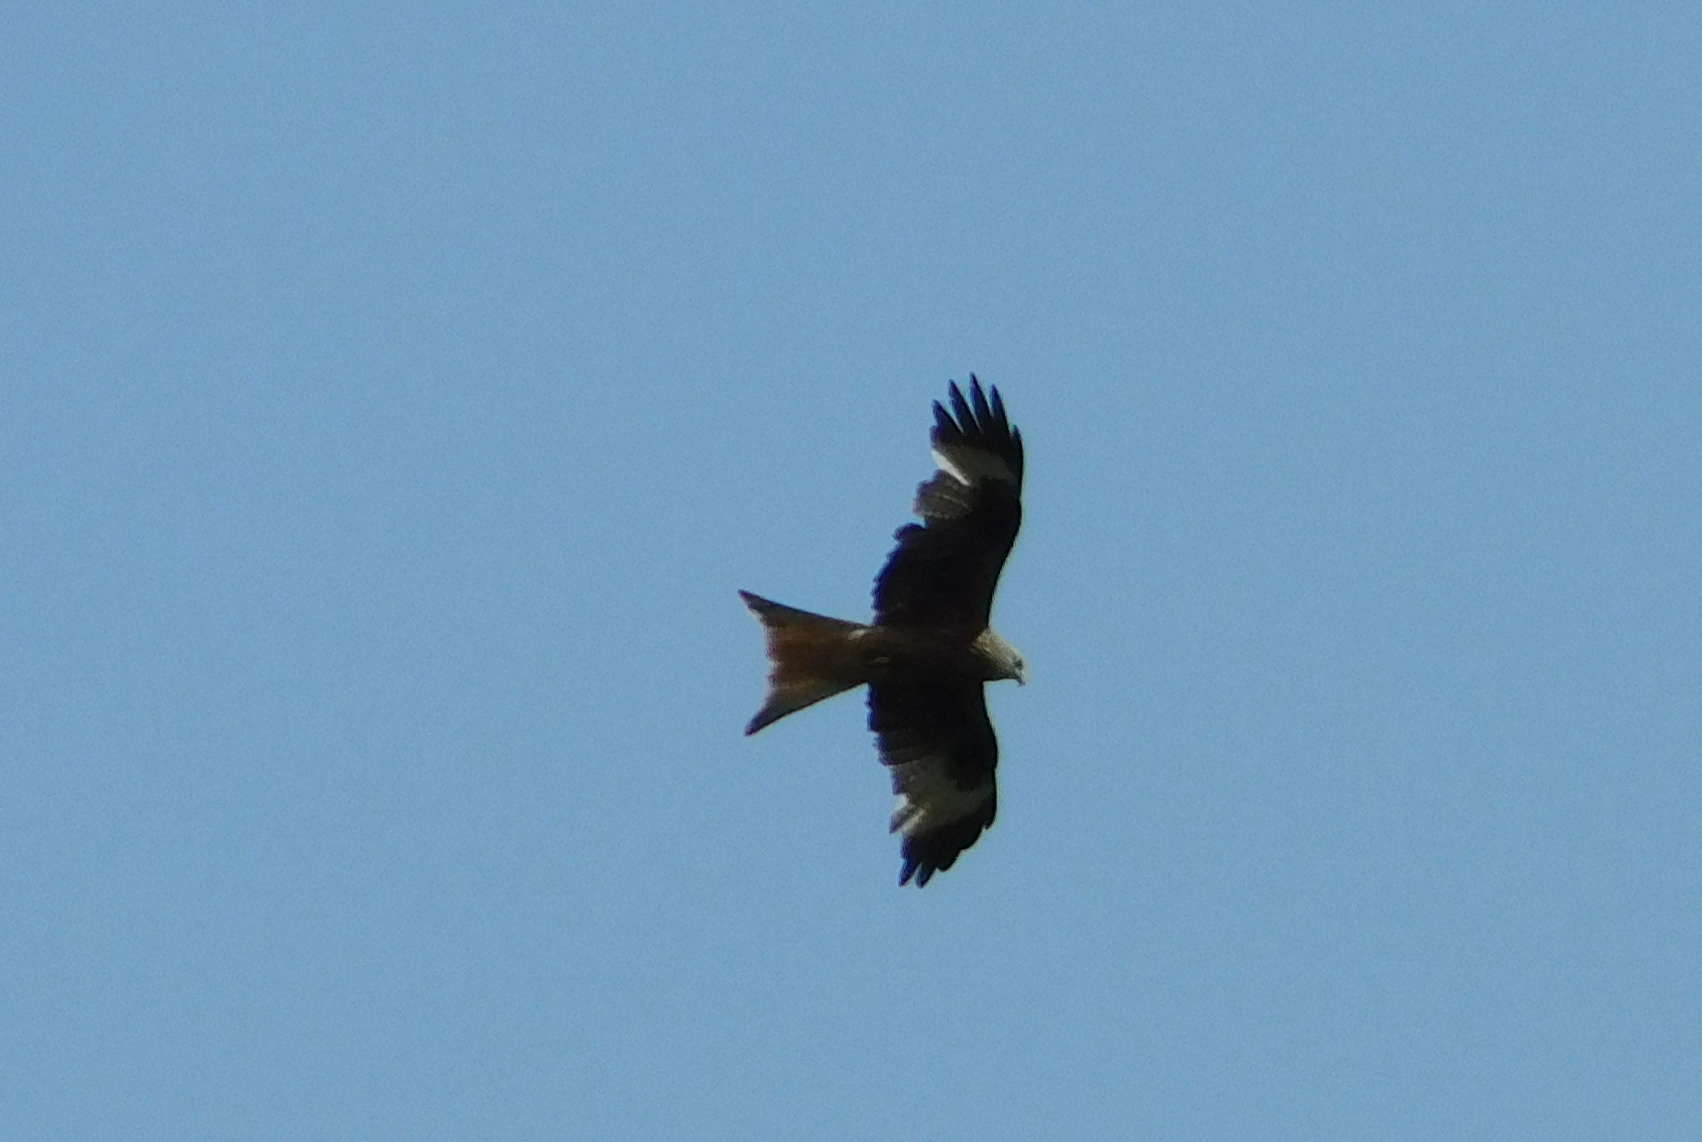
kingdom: Animalia
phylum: Chordata
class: Aves
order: Accipitriformes
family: Accipitridae
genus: Milvus
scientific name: Milvus milvus
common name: Red kite
